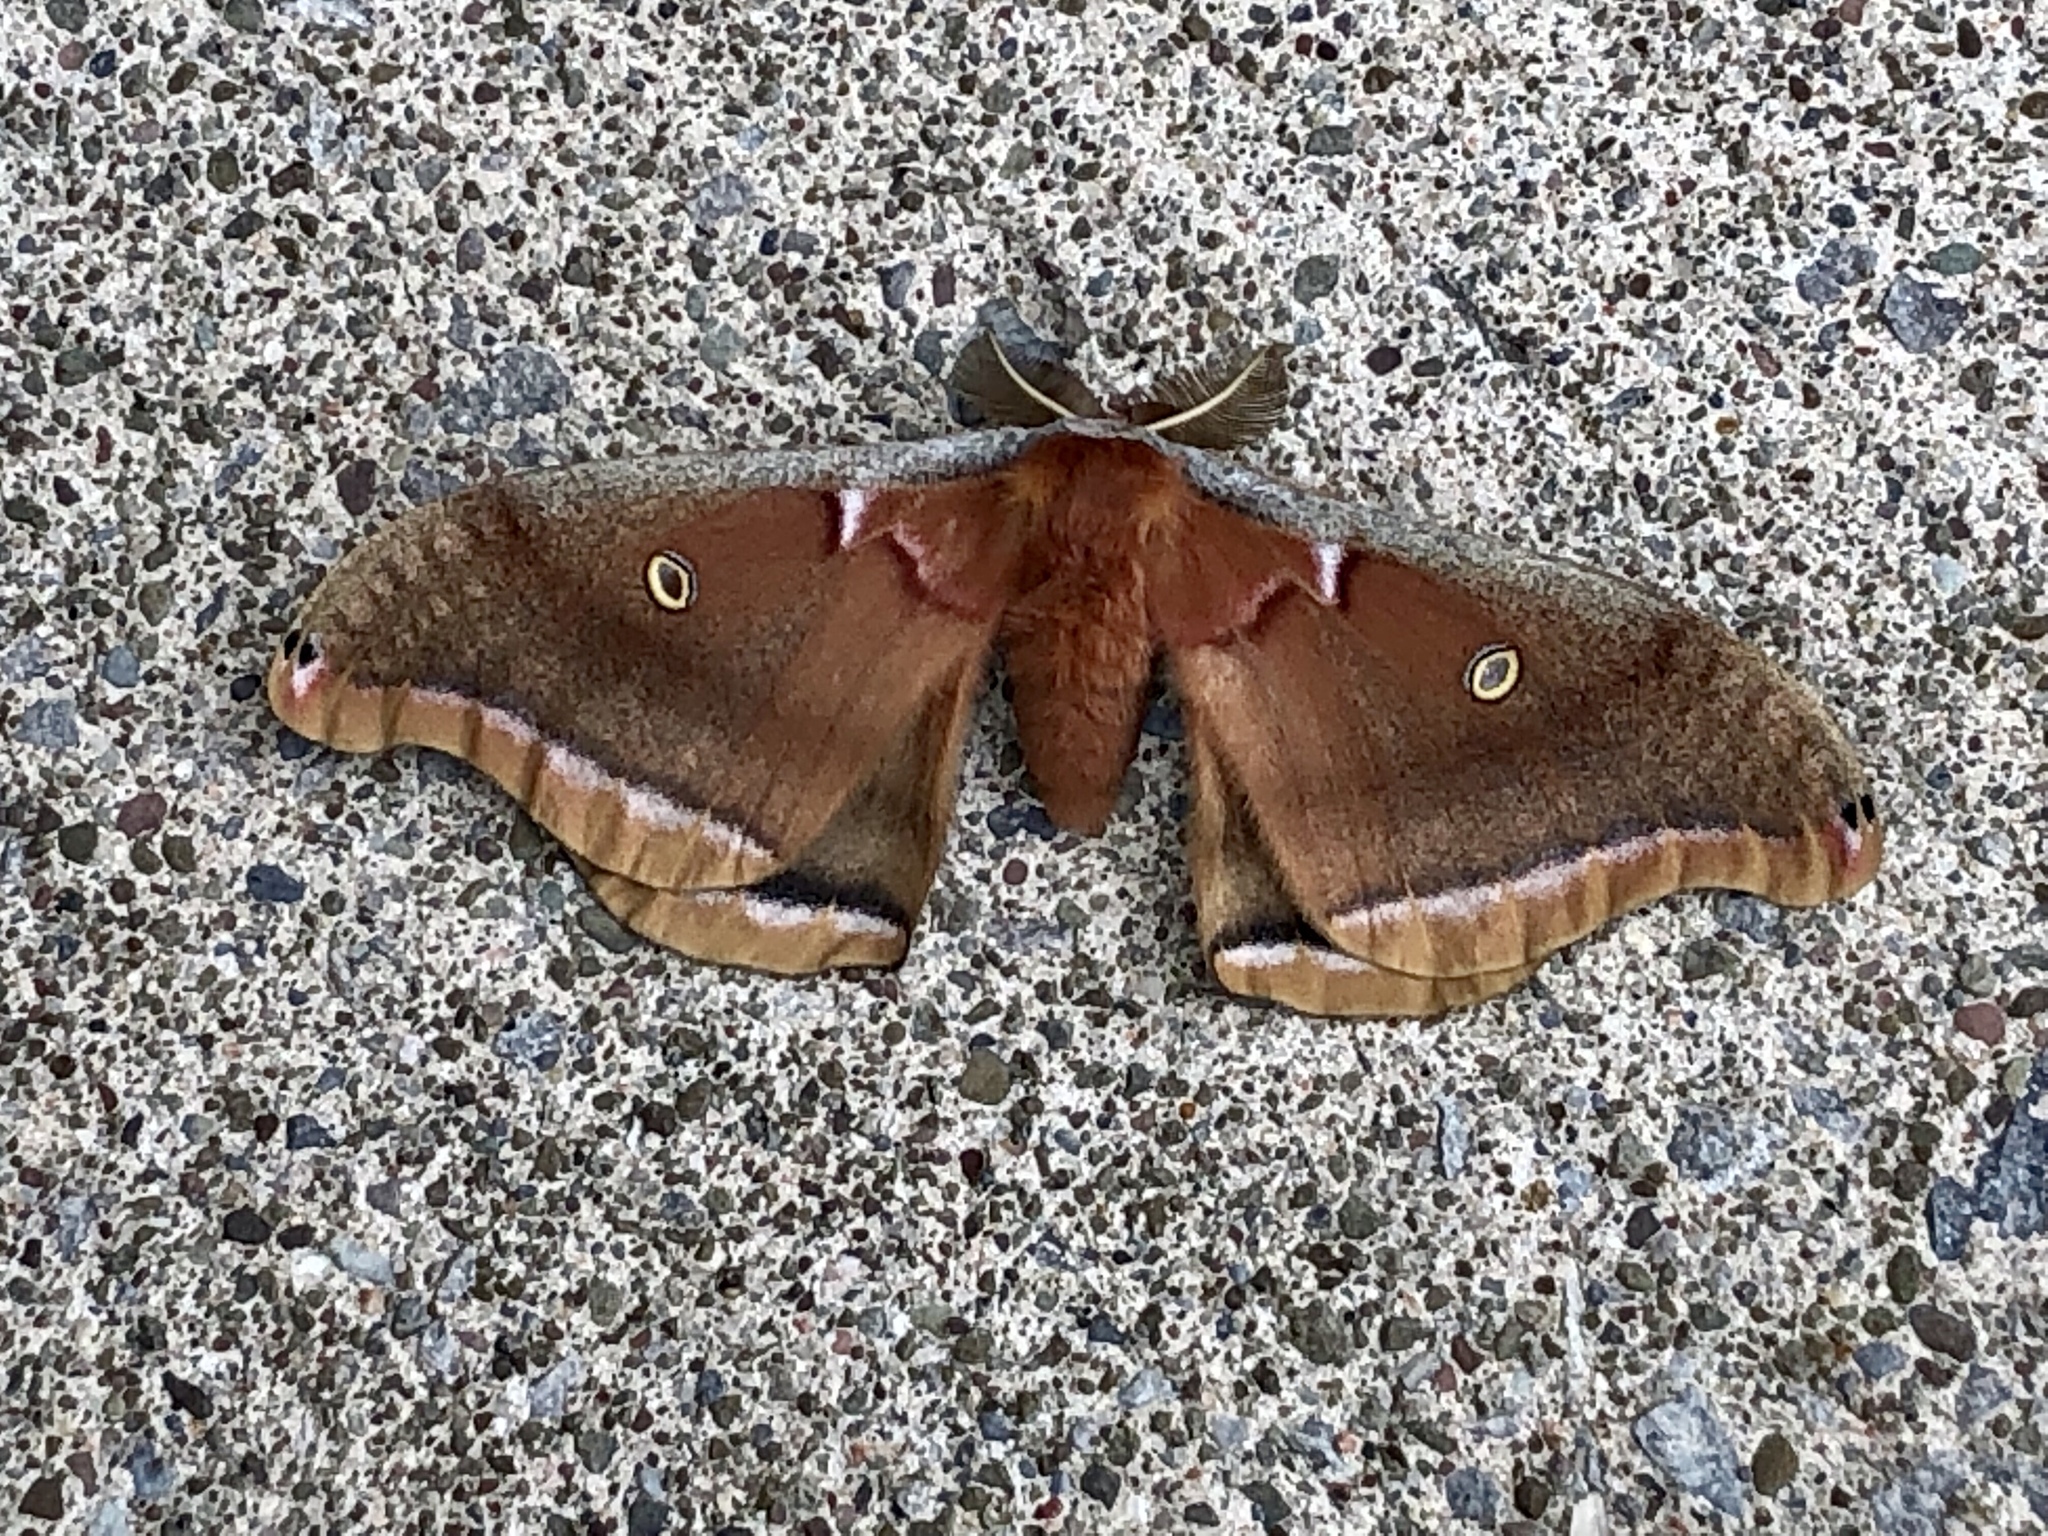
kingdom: Animalia
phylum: Arthropoda
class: Insecta
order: Lepidoptera
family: Saturniidae
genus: Antheraea
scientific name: Antheraea polyphemus
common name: Polyphemus moth
